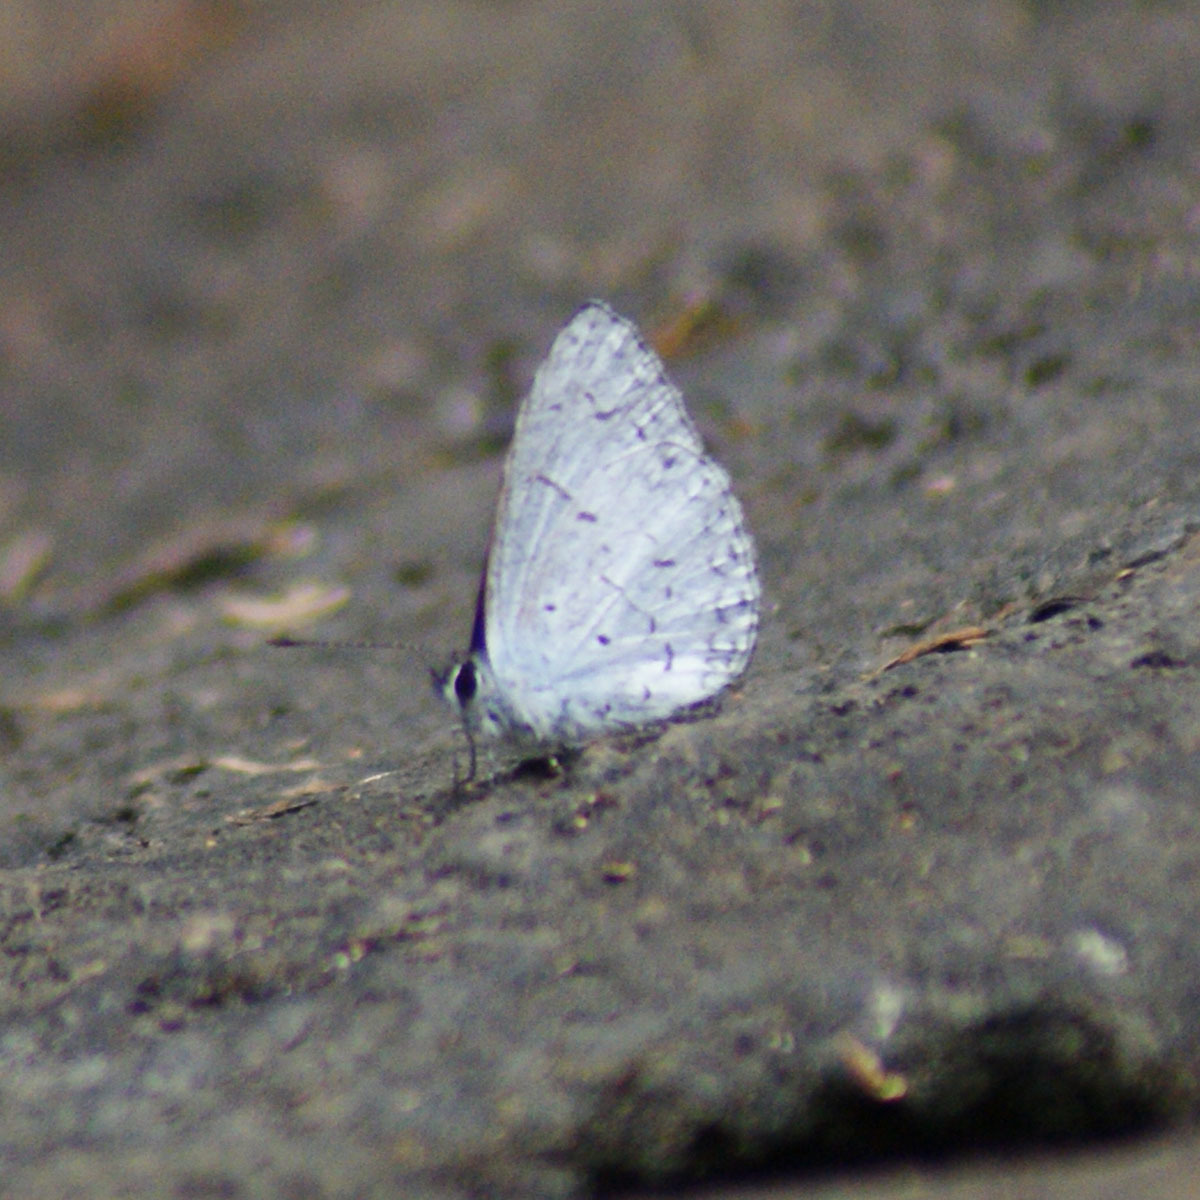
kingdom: Animalia
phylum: Arthropoda
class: Insecta
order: Lepidoptera
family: Lycaenidae
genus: Celatoxia
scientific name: Celatoxia
